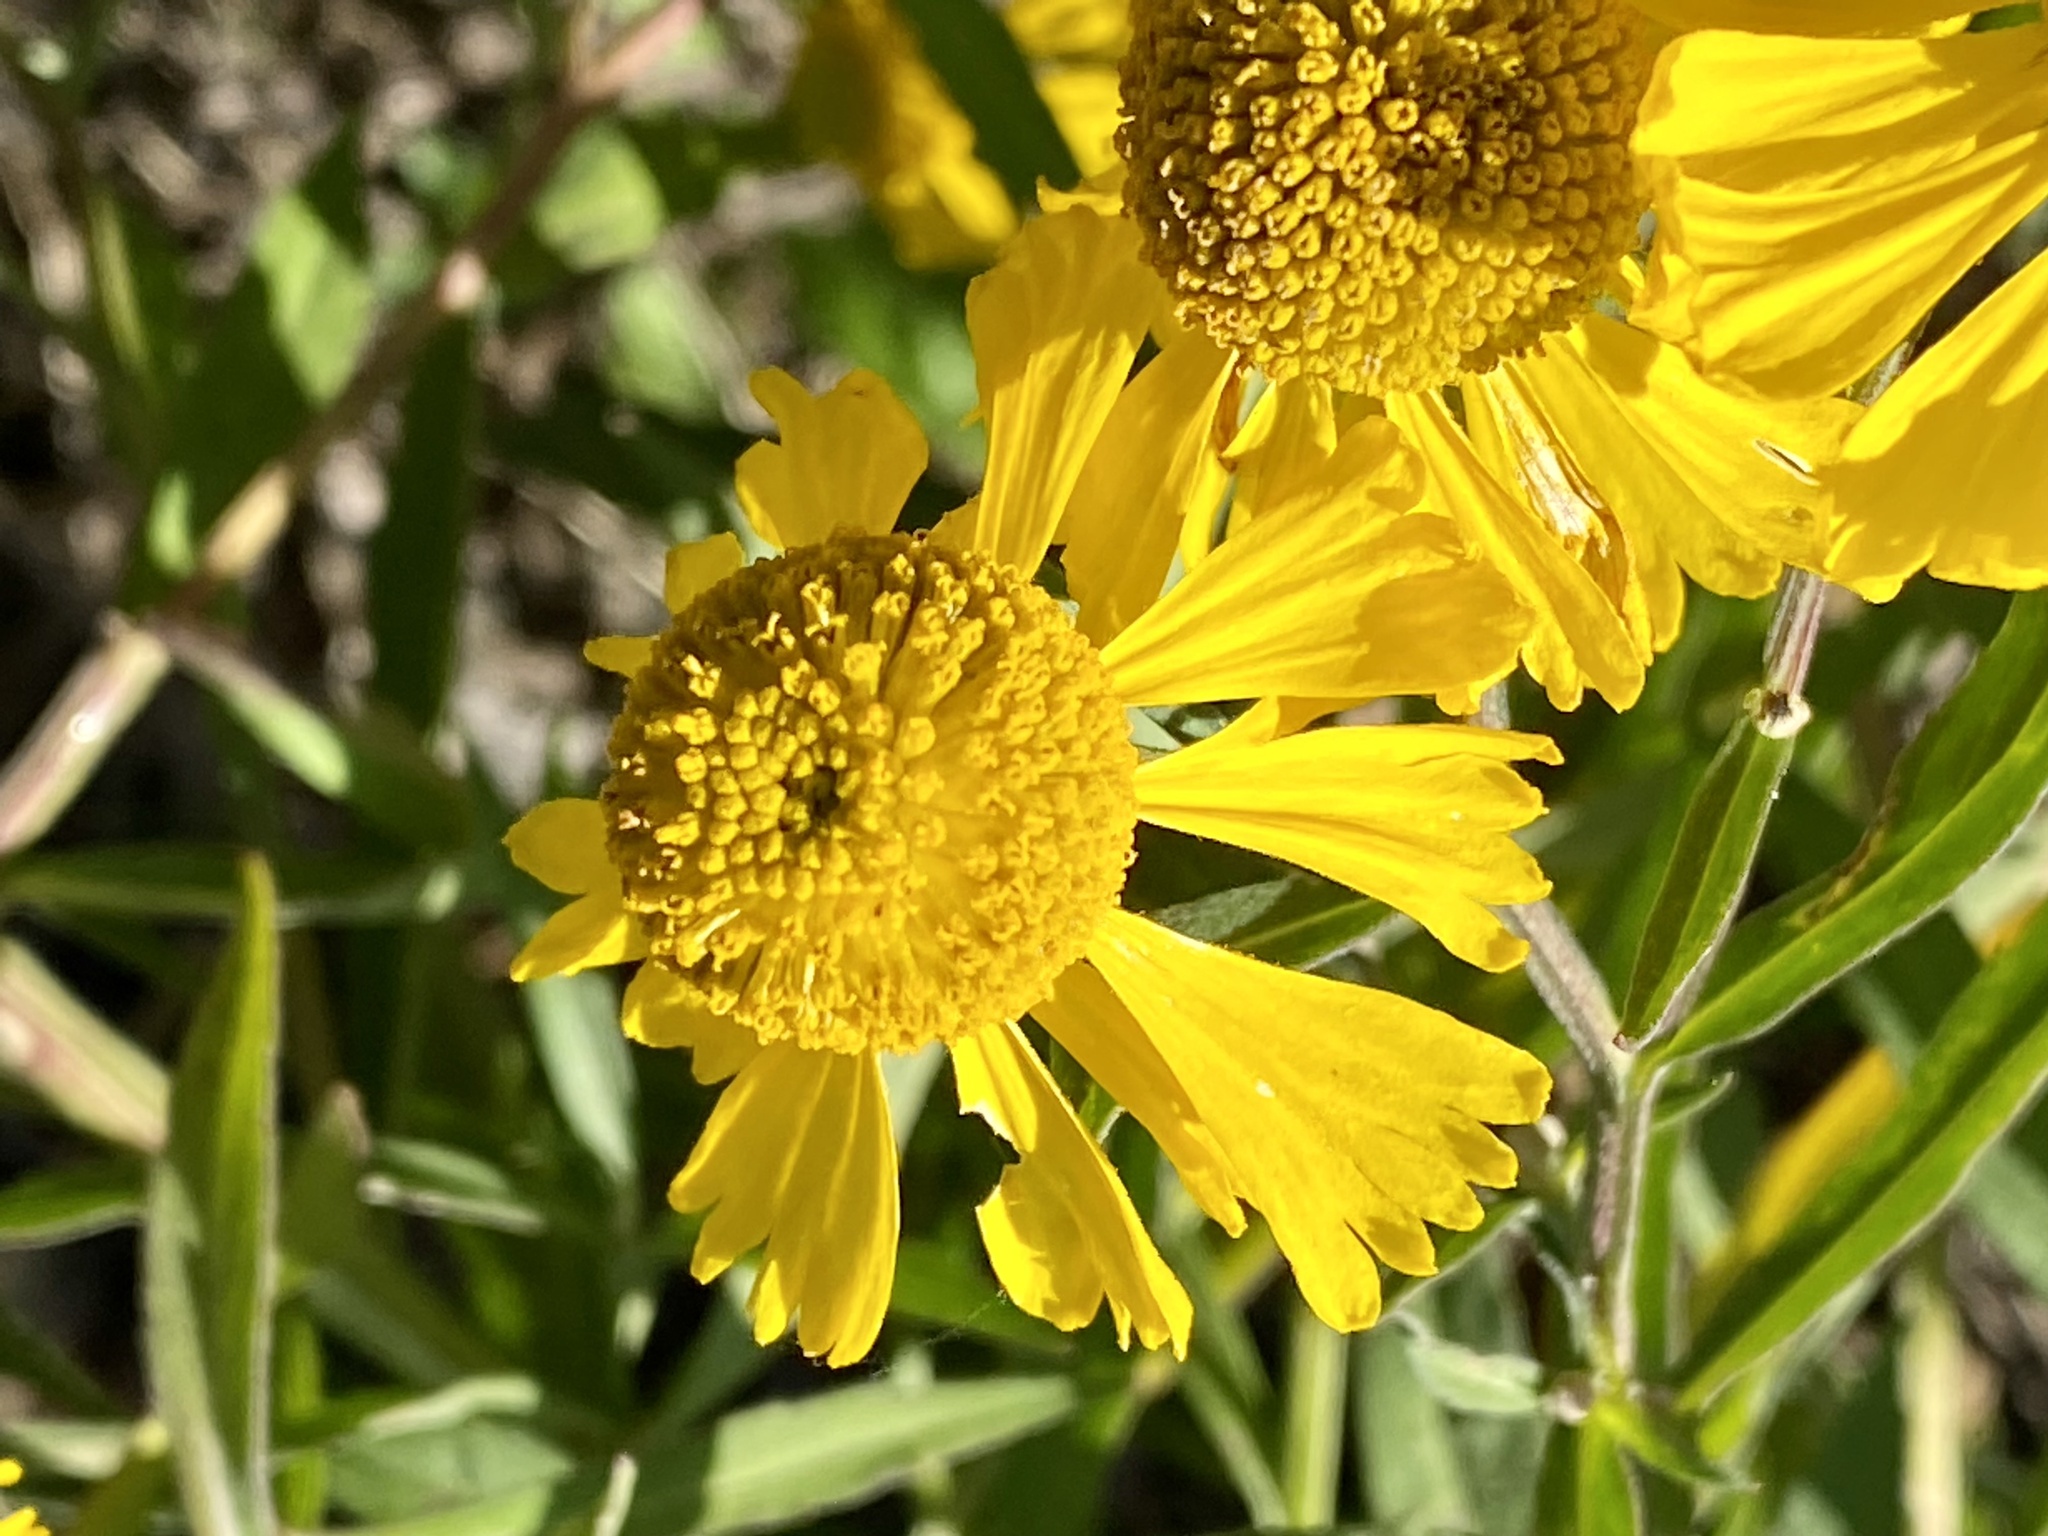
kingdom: Plantae
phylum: Tracheophyta
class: Magnoliopsida
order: Asterales
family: Asteraceae
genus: Helenium
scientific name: Helenium autumnale
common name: Sneezeweed
